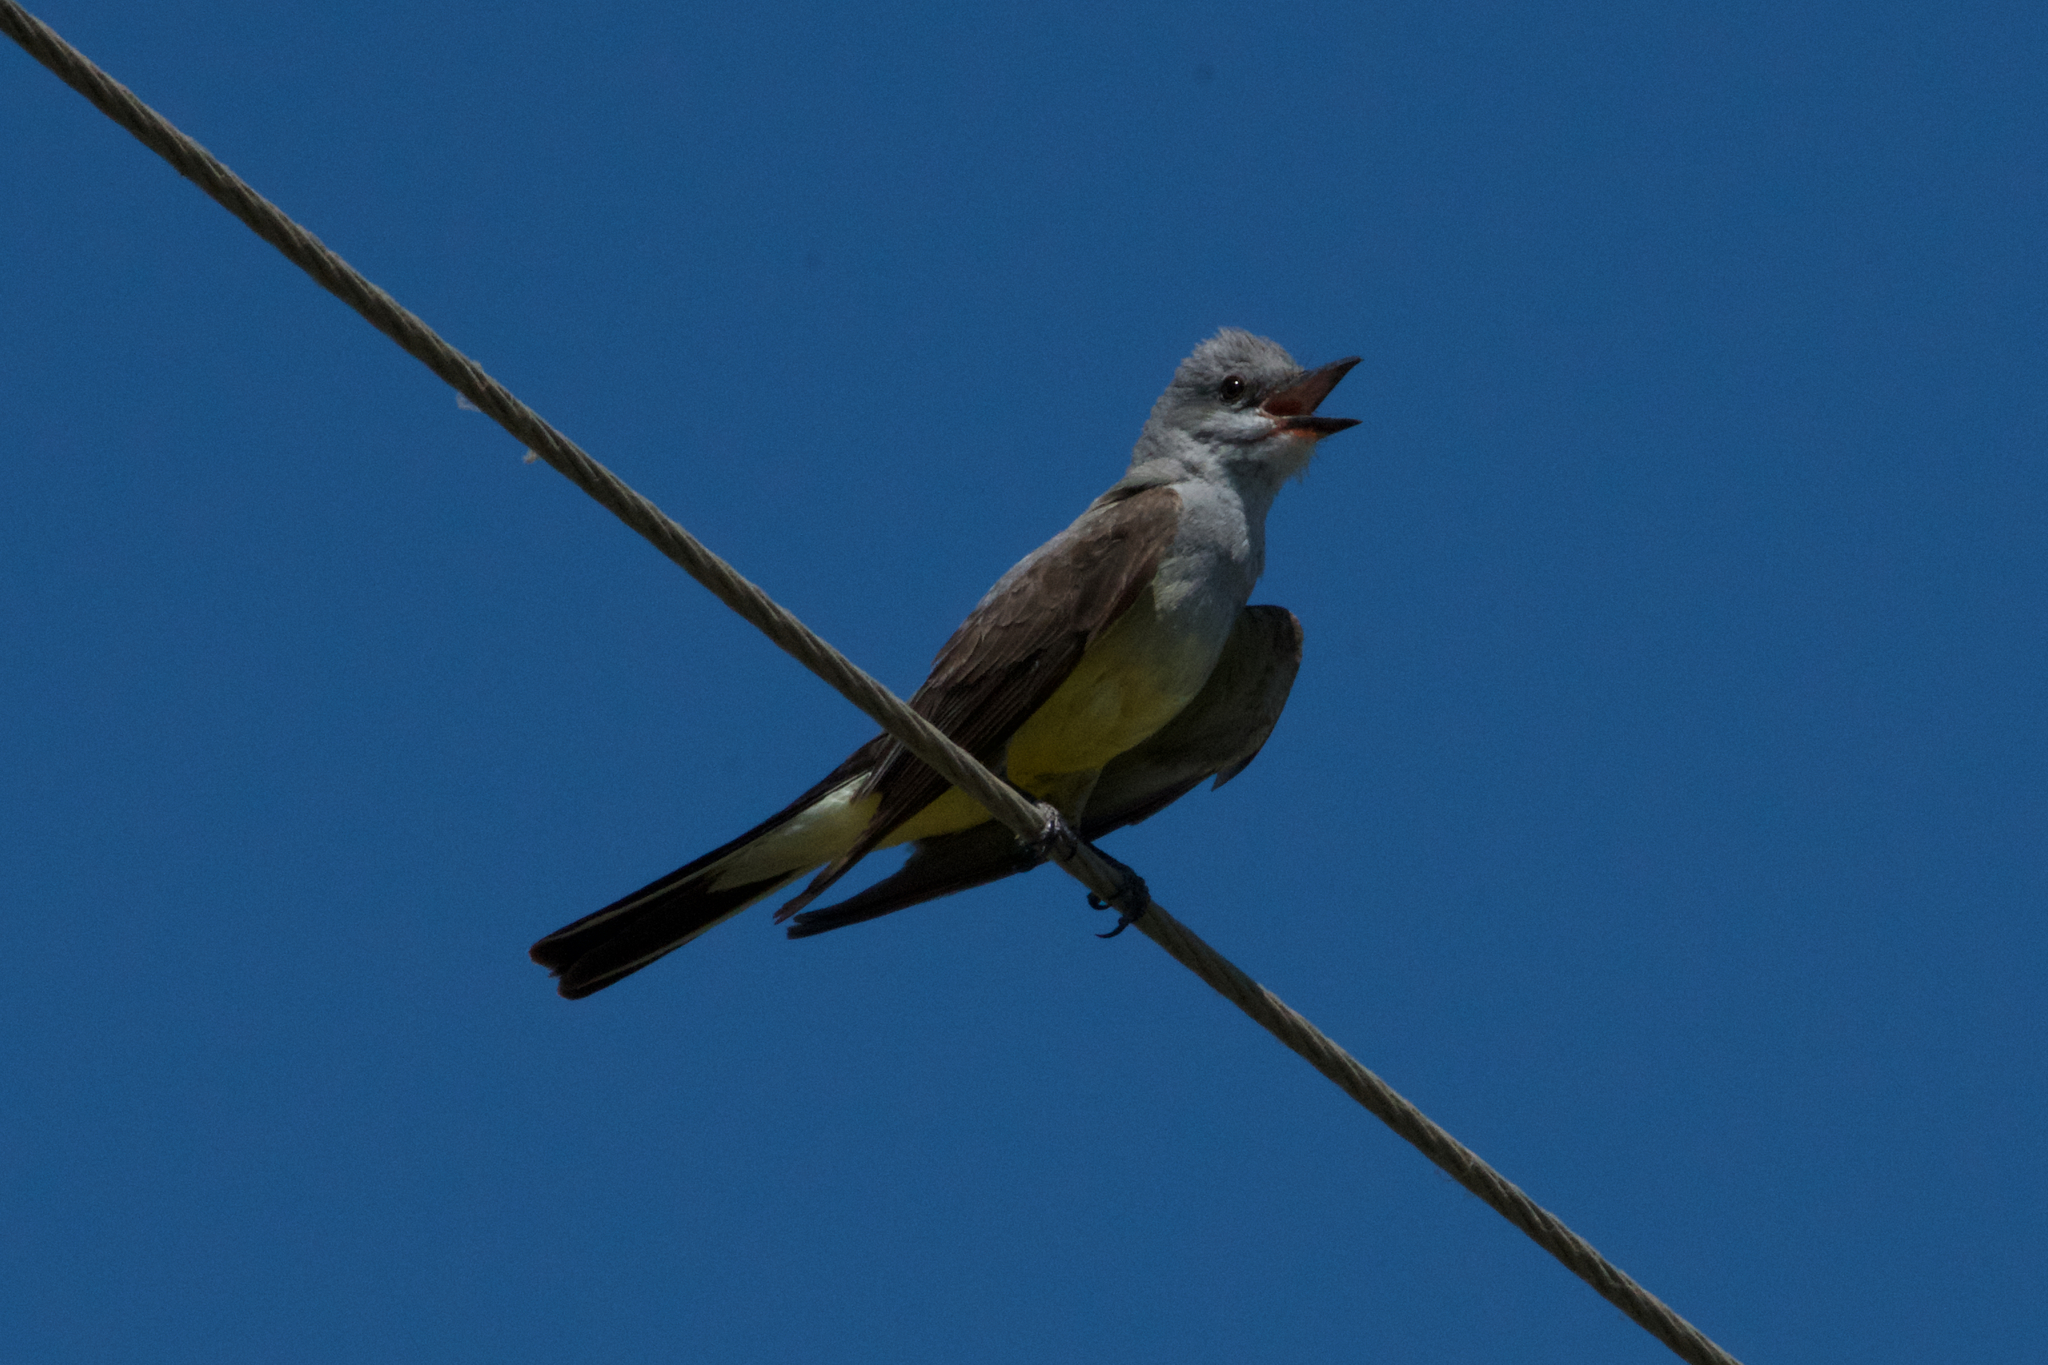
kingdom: Animalia
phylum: Chordata
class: Aves
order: Passeriformes
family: Tyrannidae
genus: Tyrannus
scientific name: Tyrannus verticalis
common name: Western kingbird
